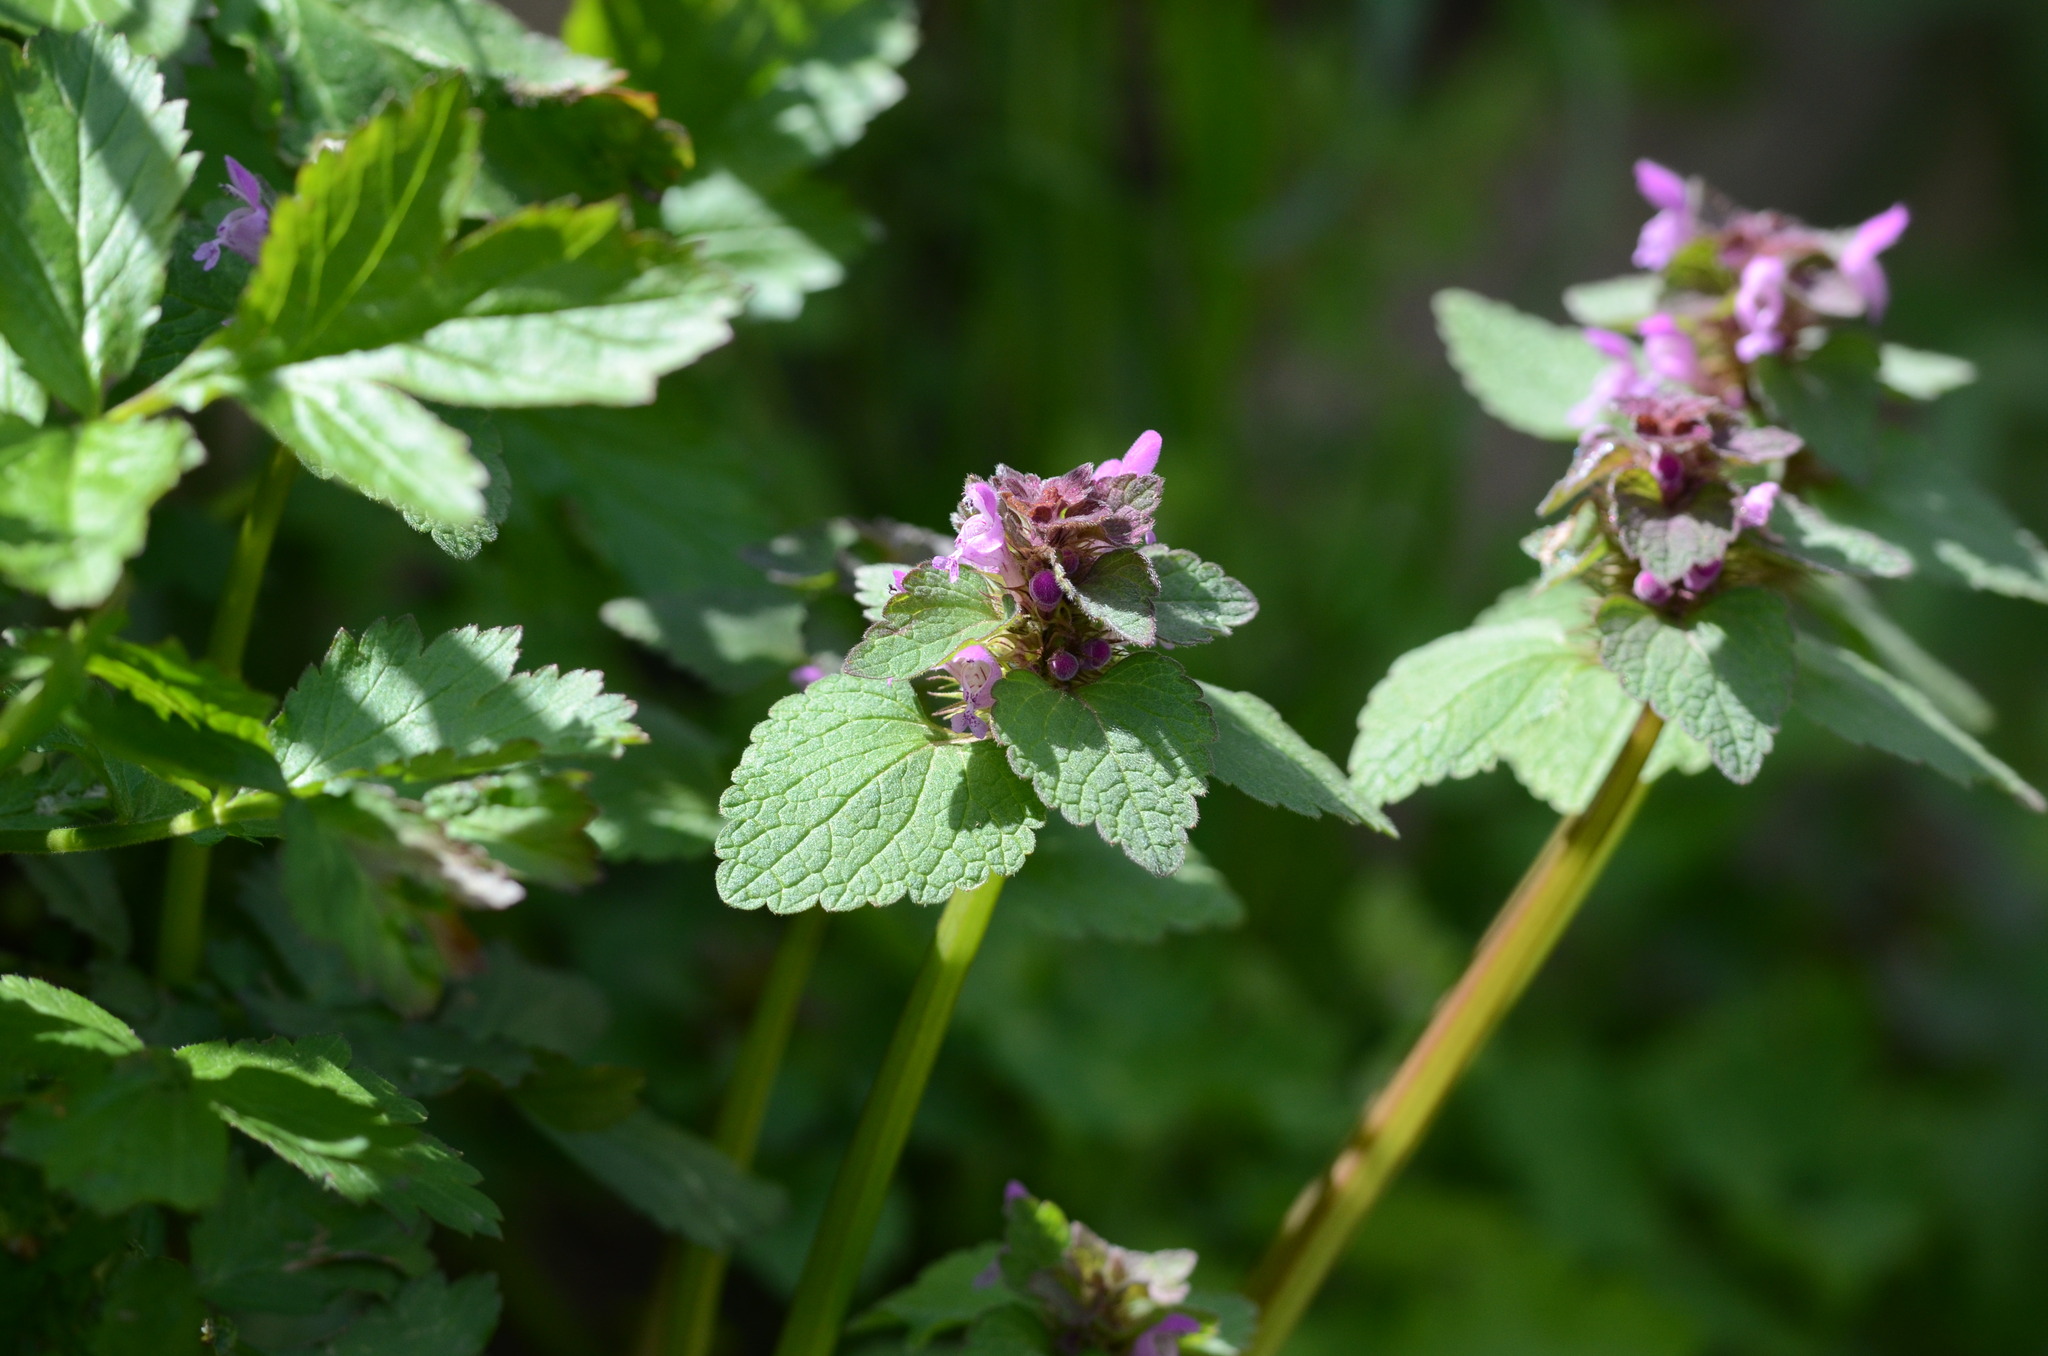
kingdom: Plantae
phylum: Tracheophyta
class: Magnoliopsida
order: Lamiales
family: Lamiaceae
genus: Lamium
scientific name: Lamium purpureum
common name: Red dead-nettle
